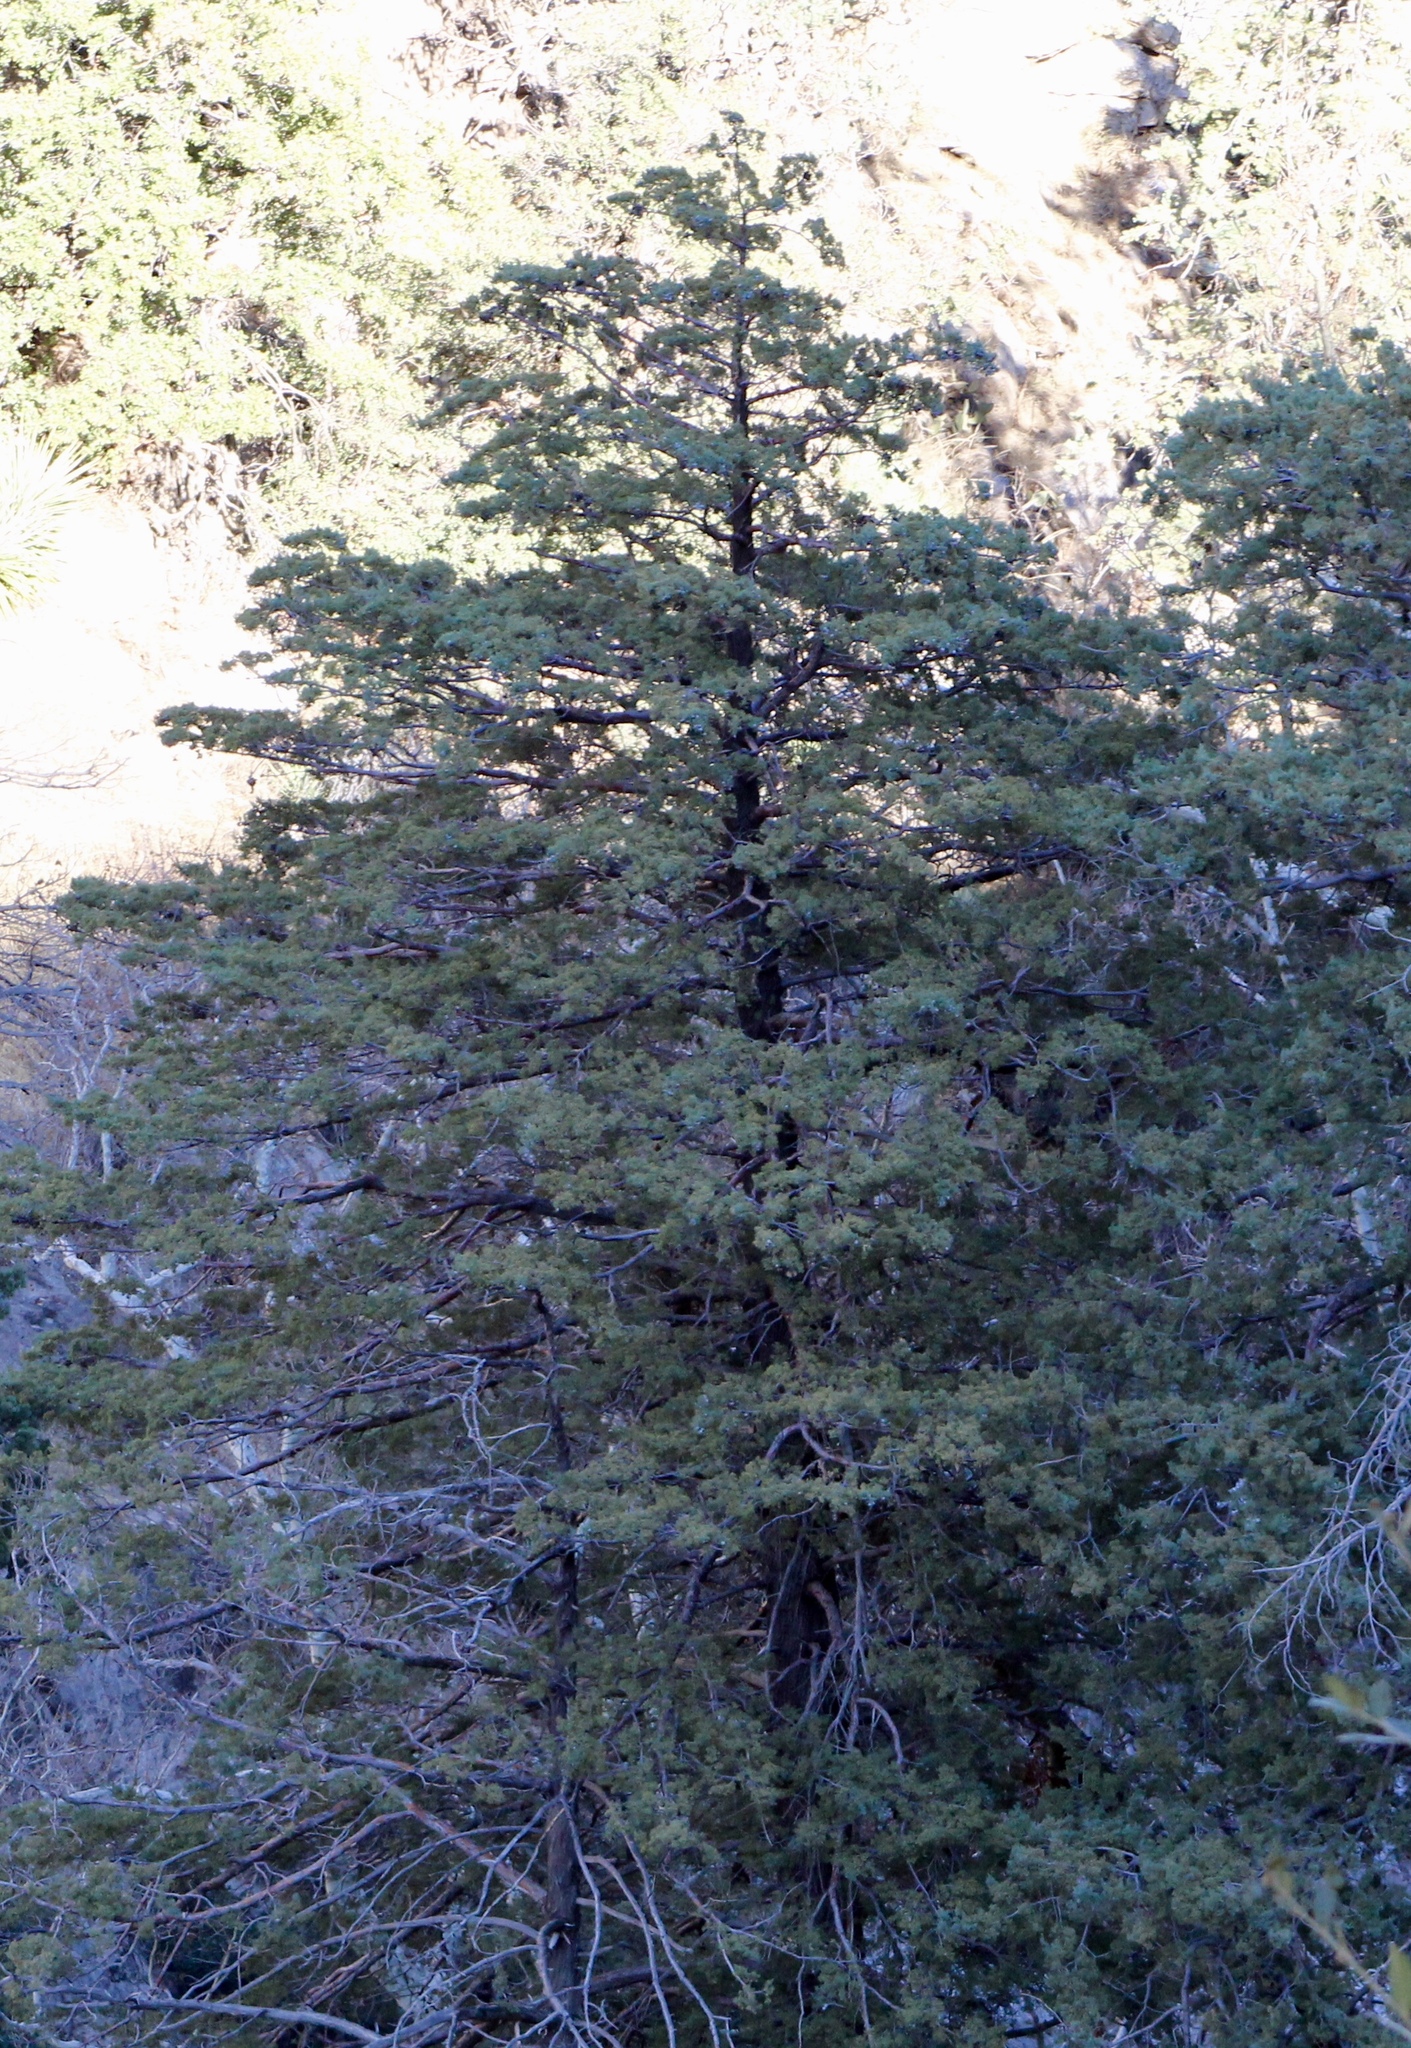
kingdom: Plantae
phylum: Tracheophyta
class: Pinopsida
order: Pinales
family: Cupressaceae
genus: Cupressus
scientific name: Cupressus arizonica
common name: Arizona cypress
